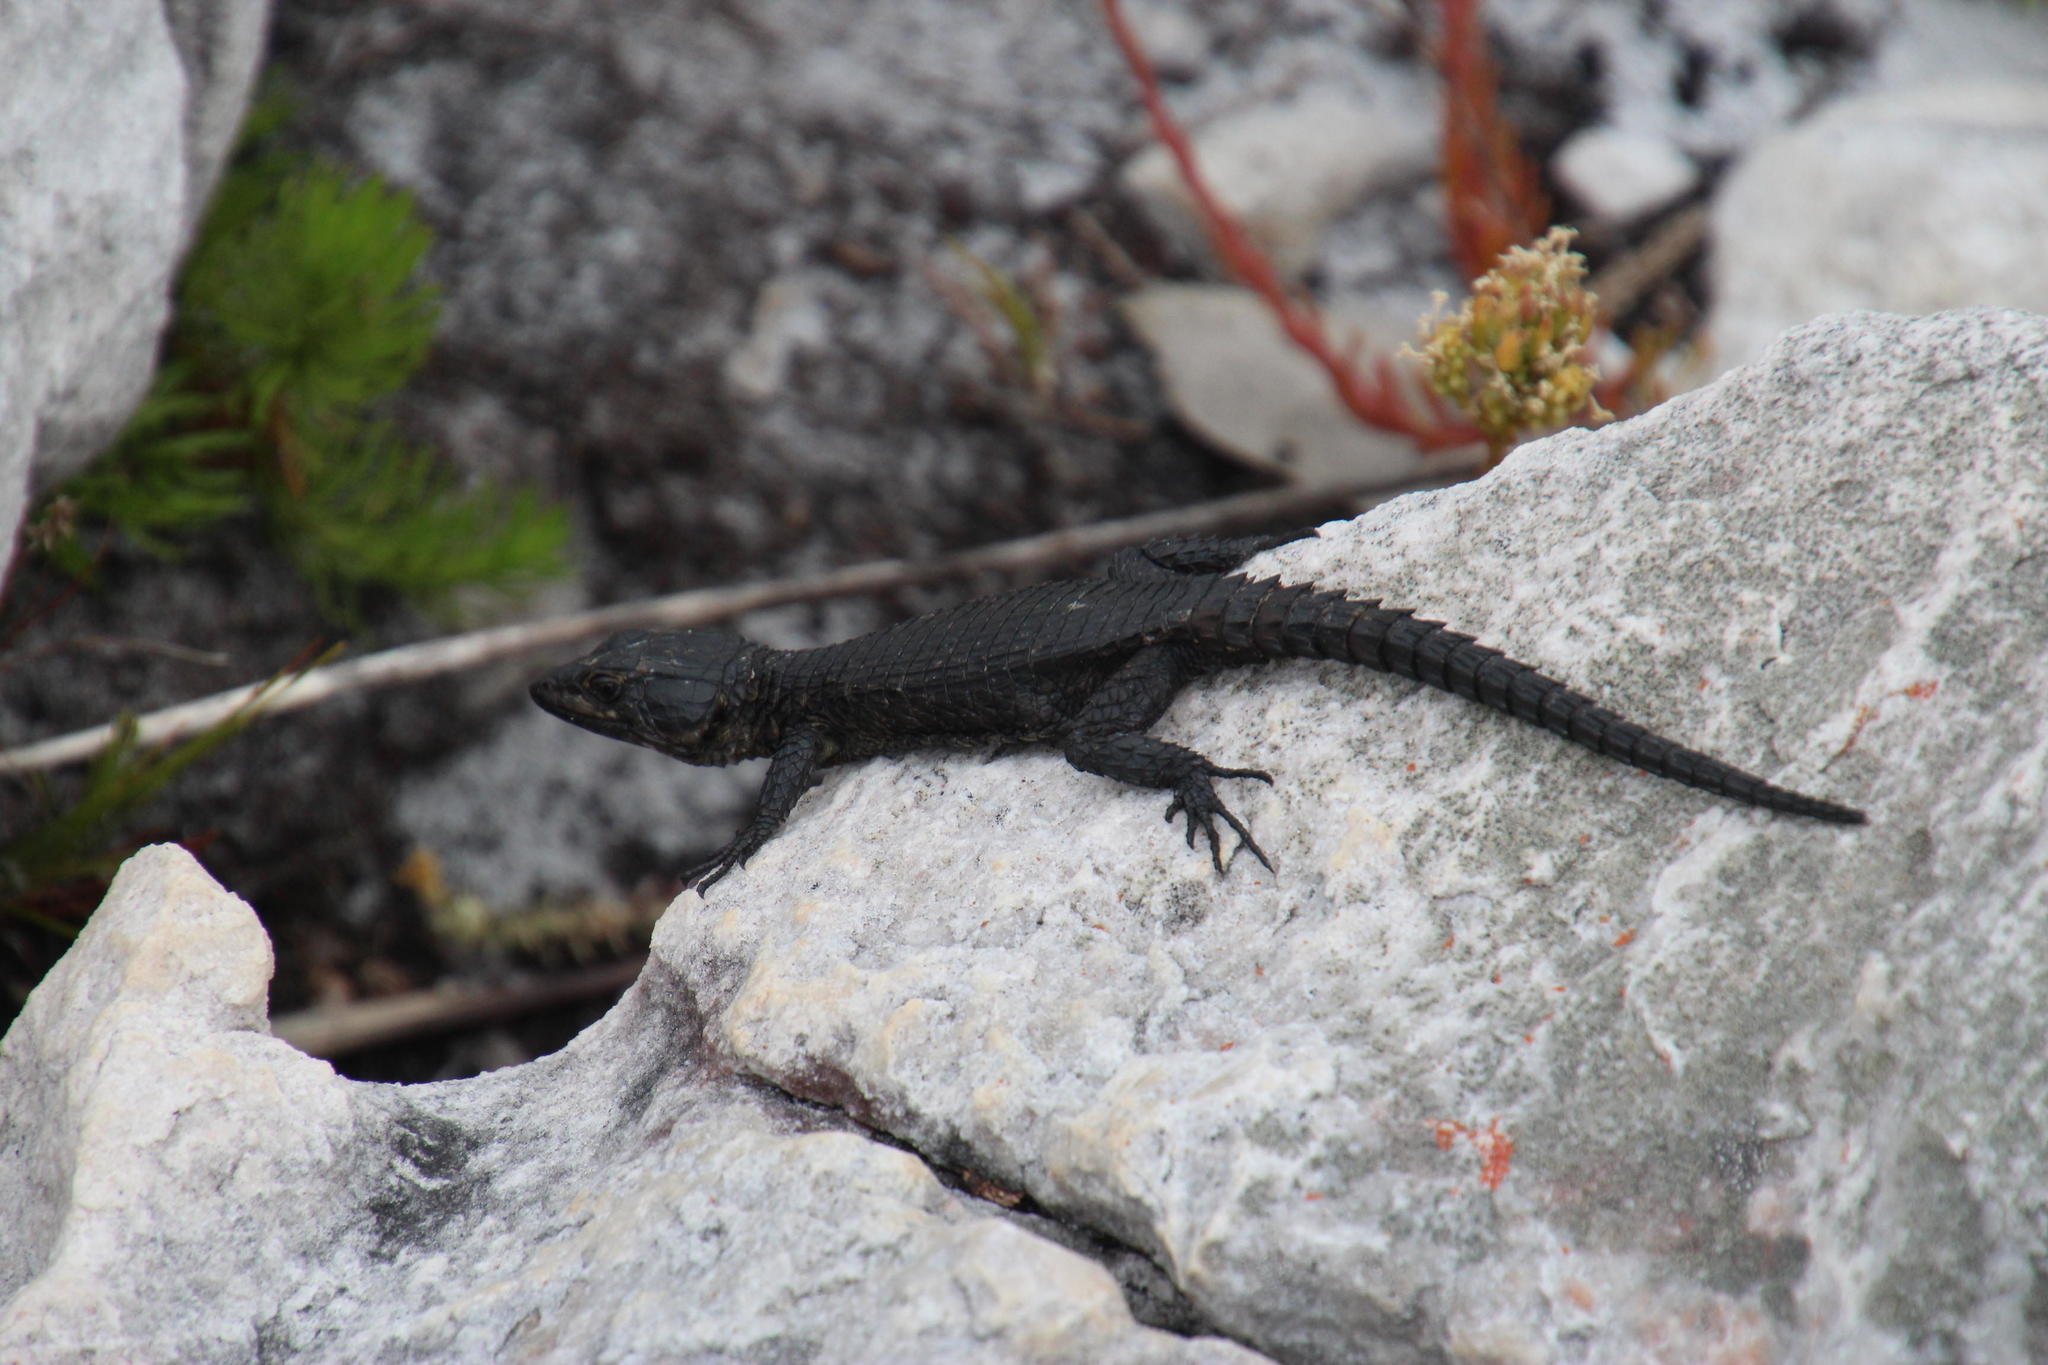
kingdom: Animalia
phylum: Chordata
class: Squamata
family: Cordylidae
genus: Cordylus
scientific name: Cordylus niger
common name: Black girdled lizard
